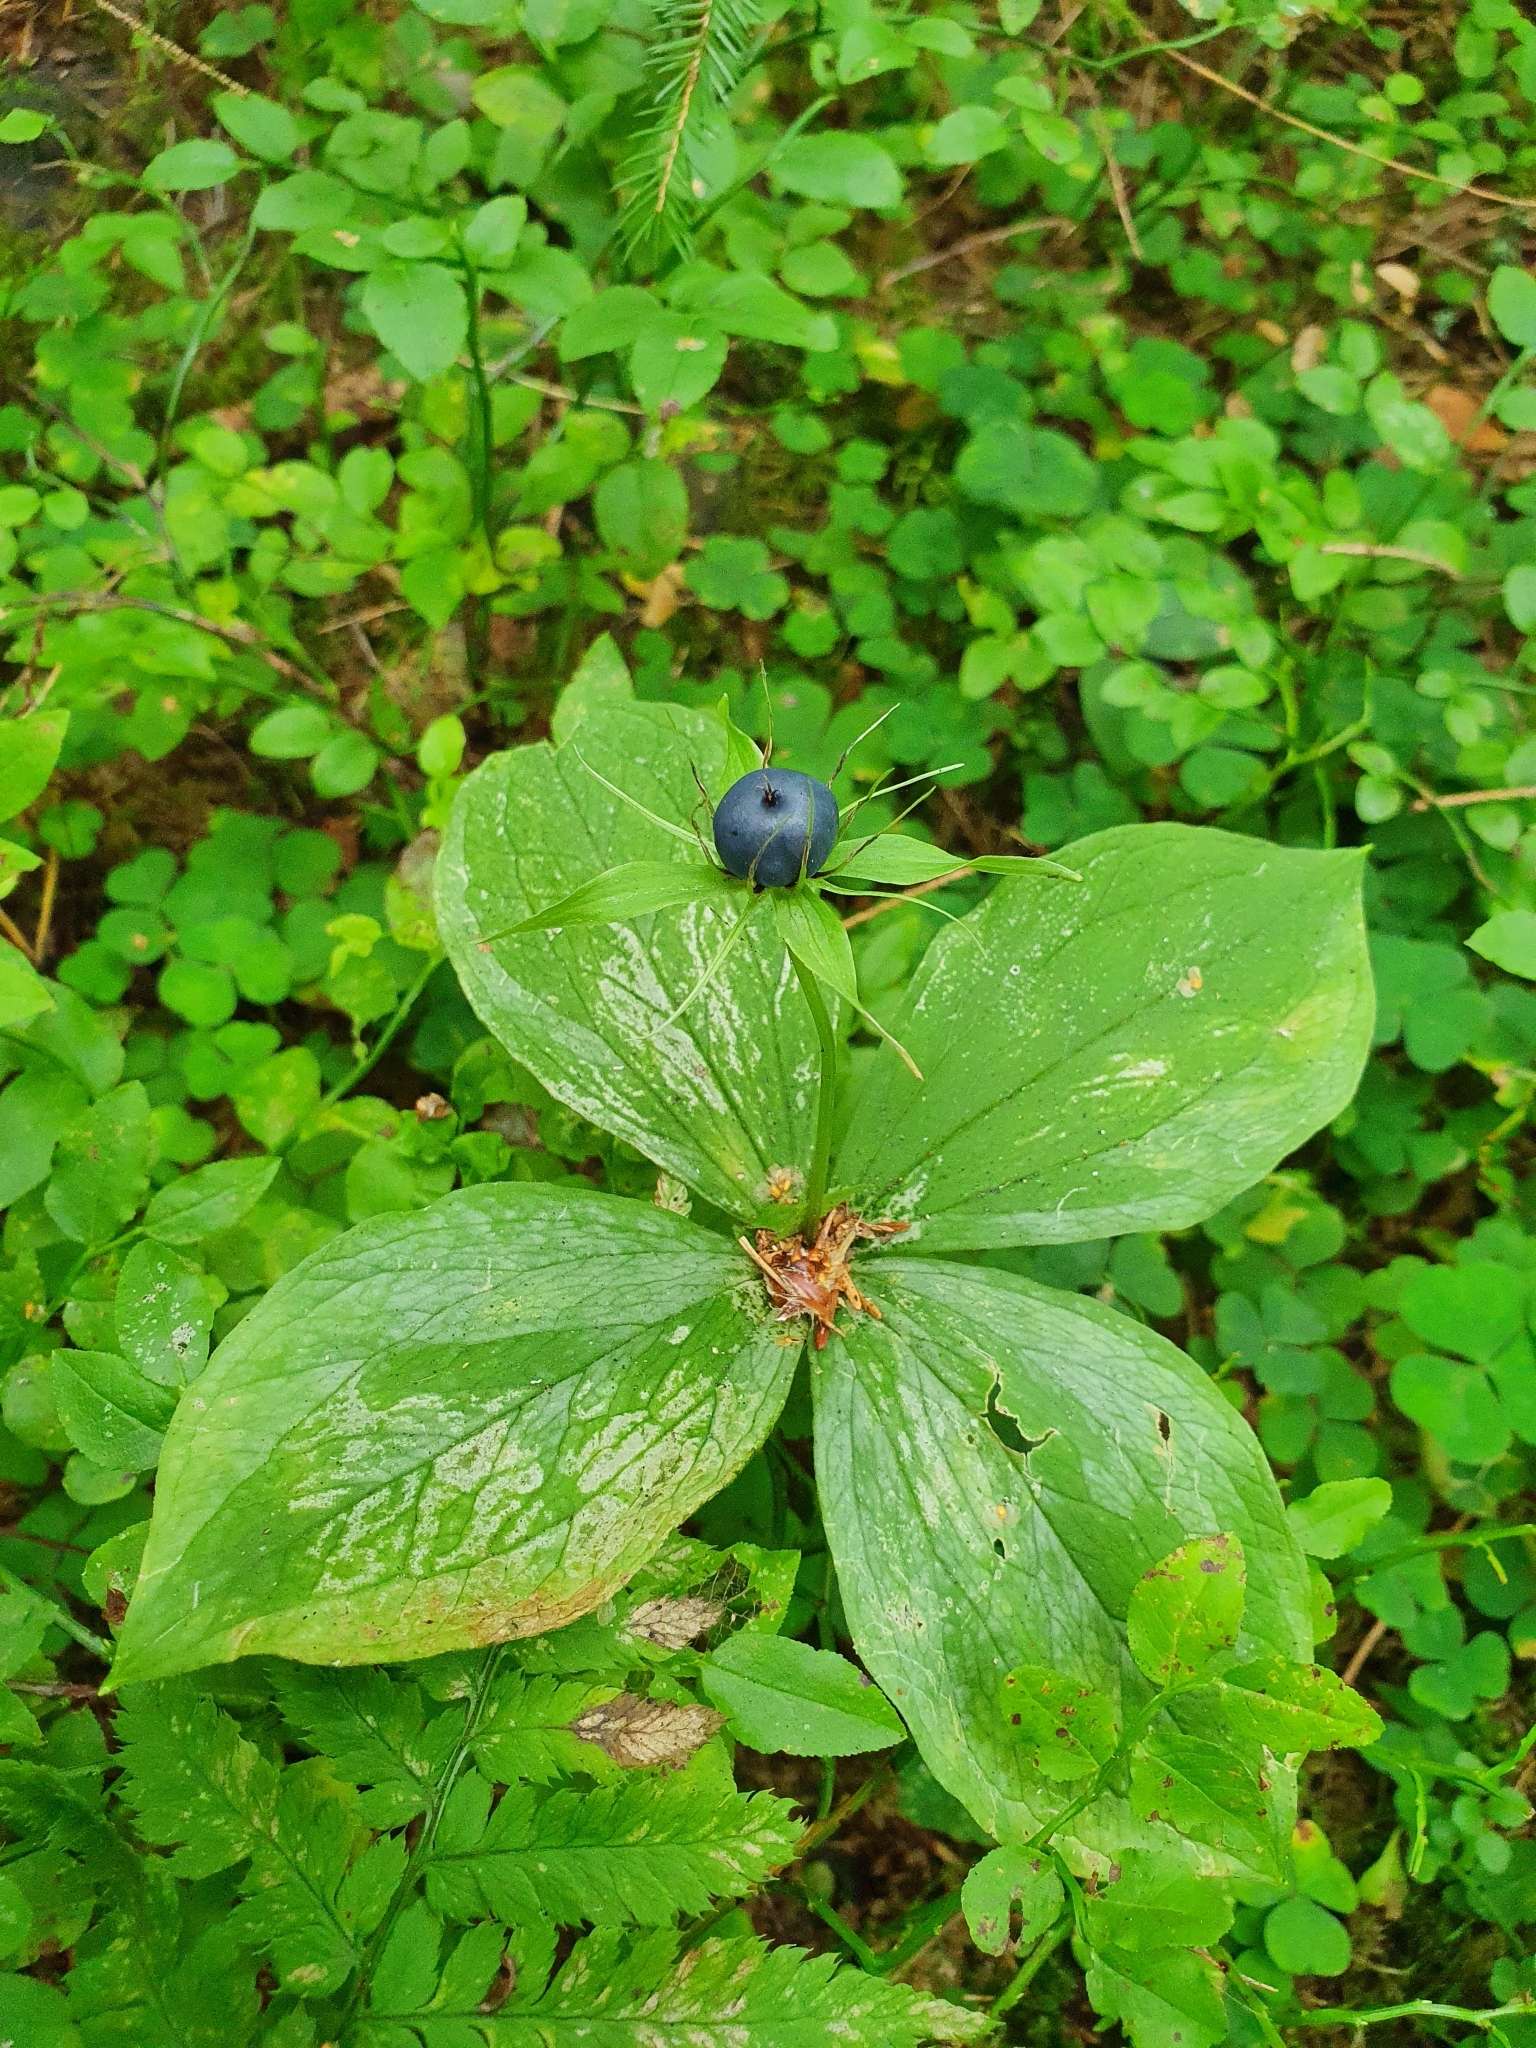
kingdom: Plantae
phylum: Tracheophyta
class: Liliopsida
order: Liliales
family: Melanthiaceae
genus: Paris
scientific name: Paris quadrifolia
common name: Herb-paris
